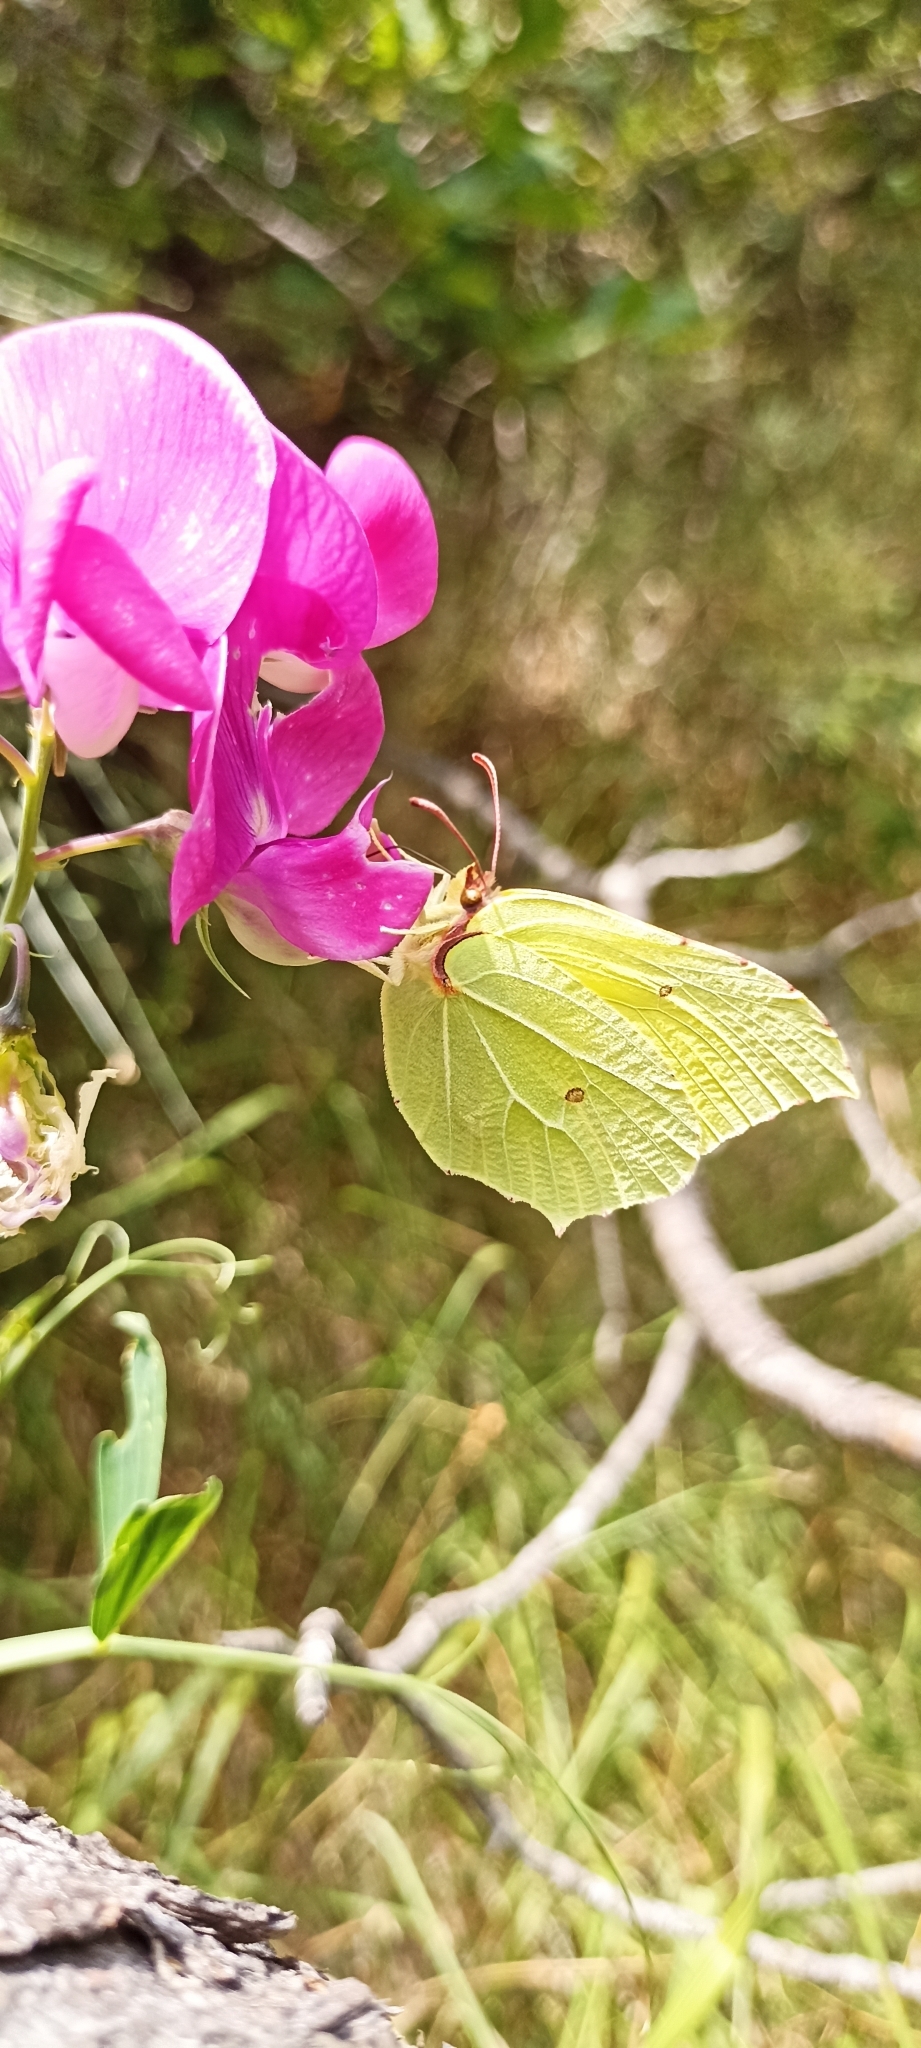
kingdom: Animalia
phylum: Arthropoda
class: Insecta
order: Lepidoptera
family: Pieridae
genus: Gonepteryx
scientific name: Gonepteryx rhamni
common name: Brimstone
